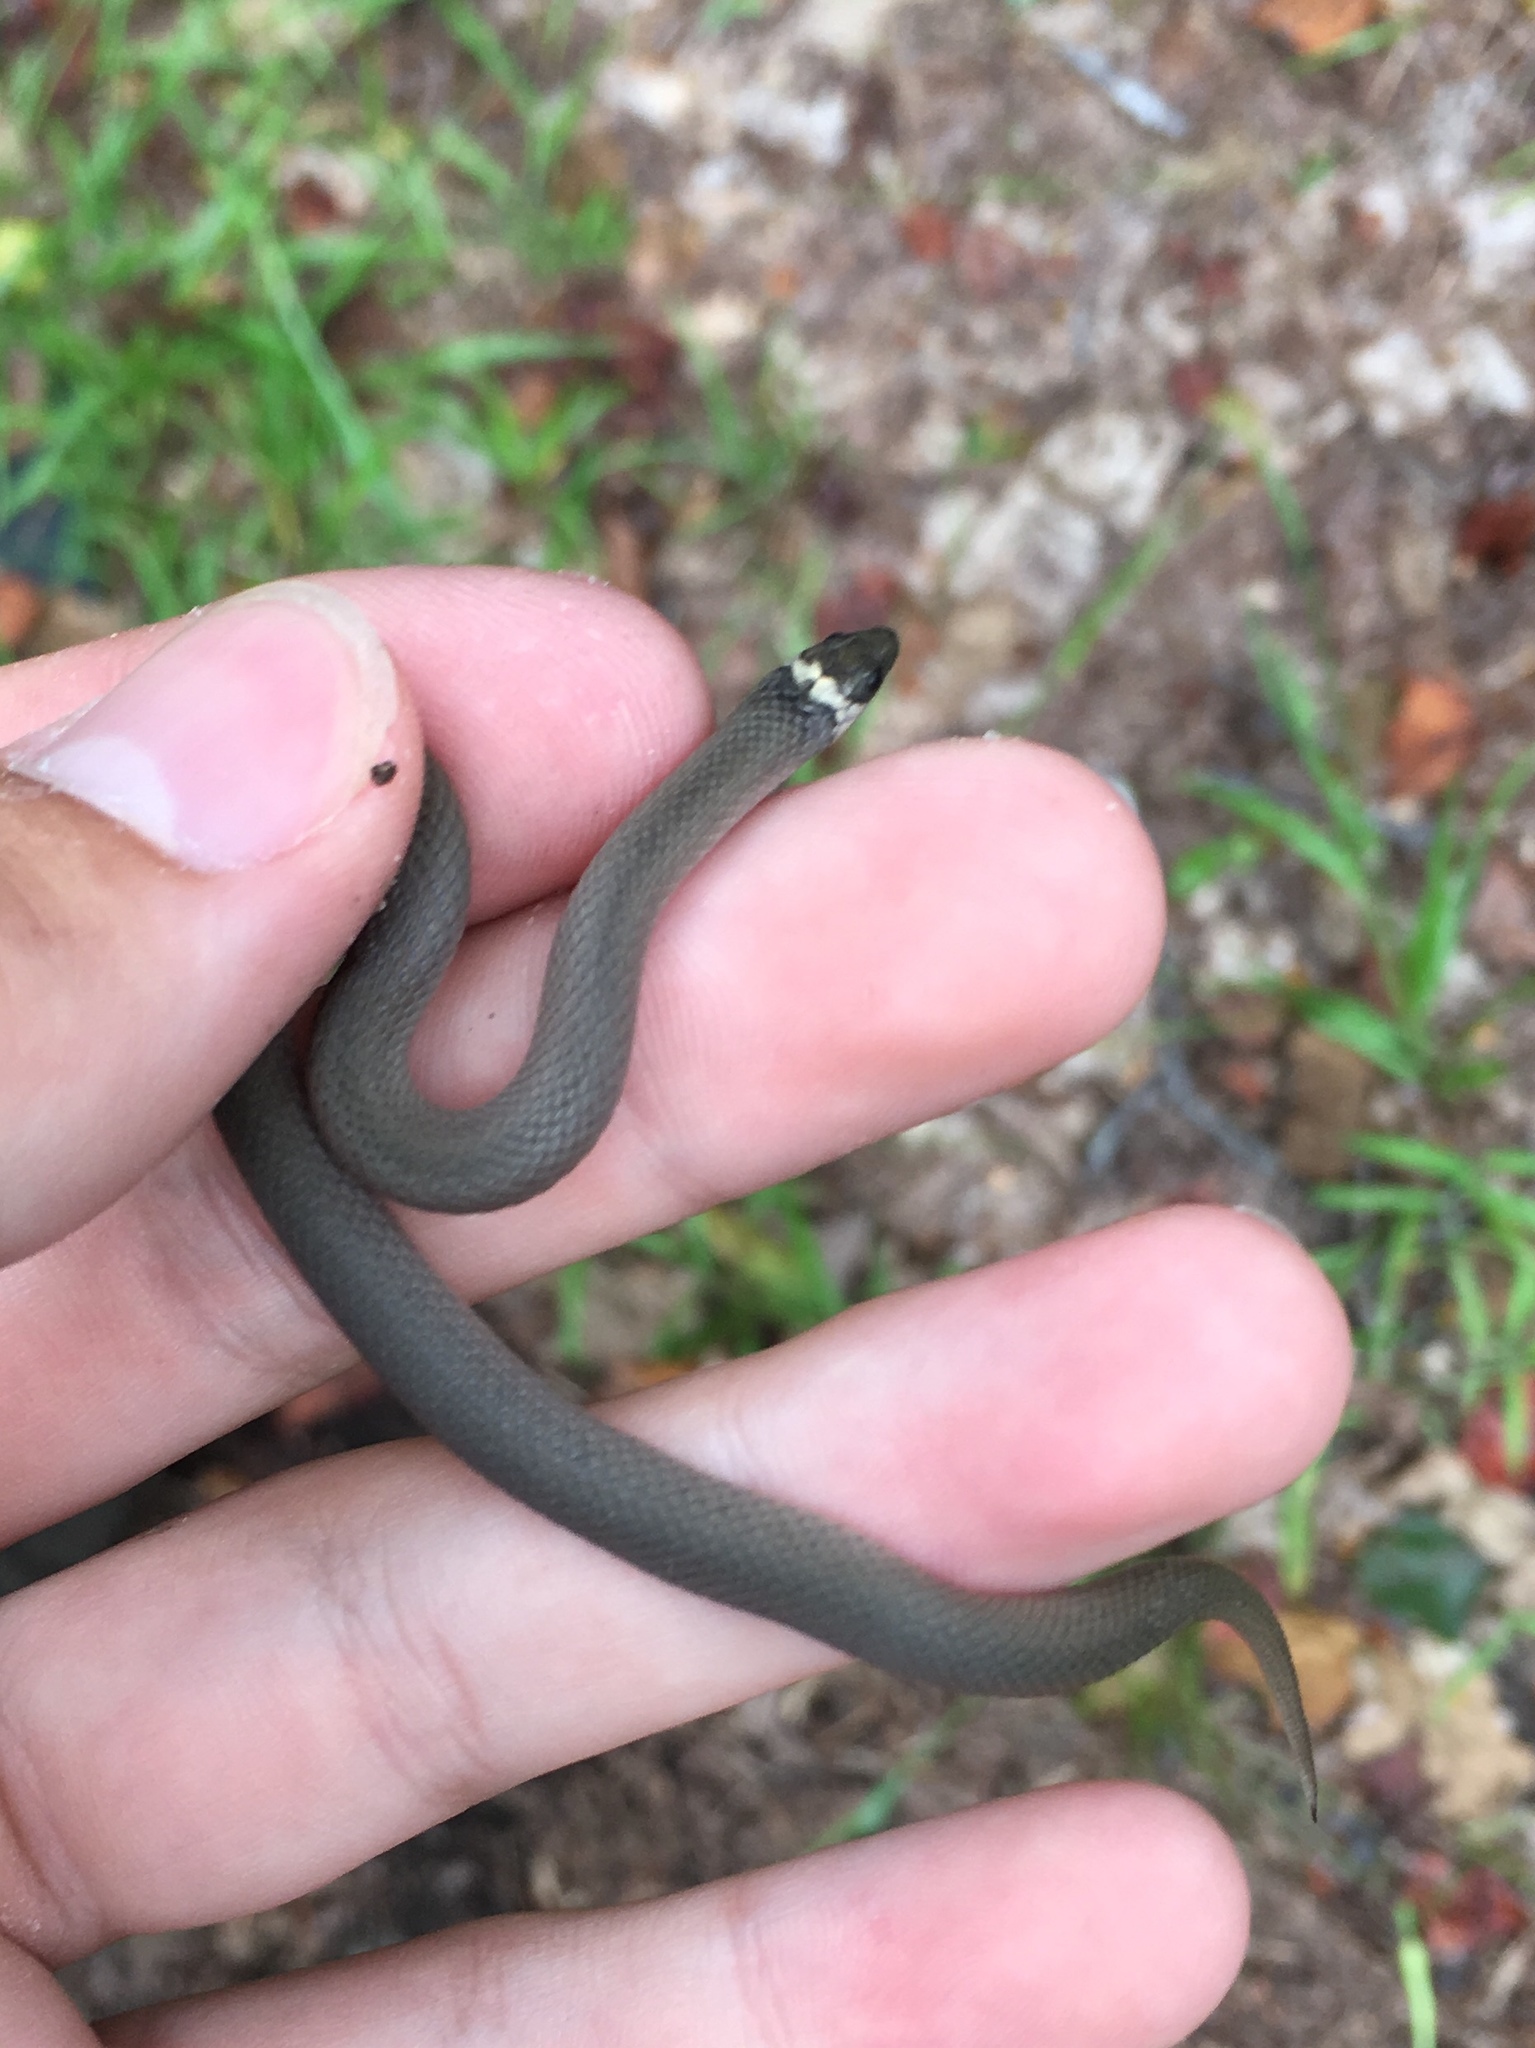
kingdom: Animalia
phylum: Chordata
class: Squamata
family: Colubridae
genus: Haldea
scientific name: Haldea striatula
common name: Rough earth snake
